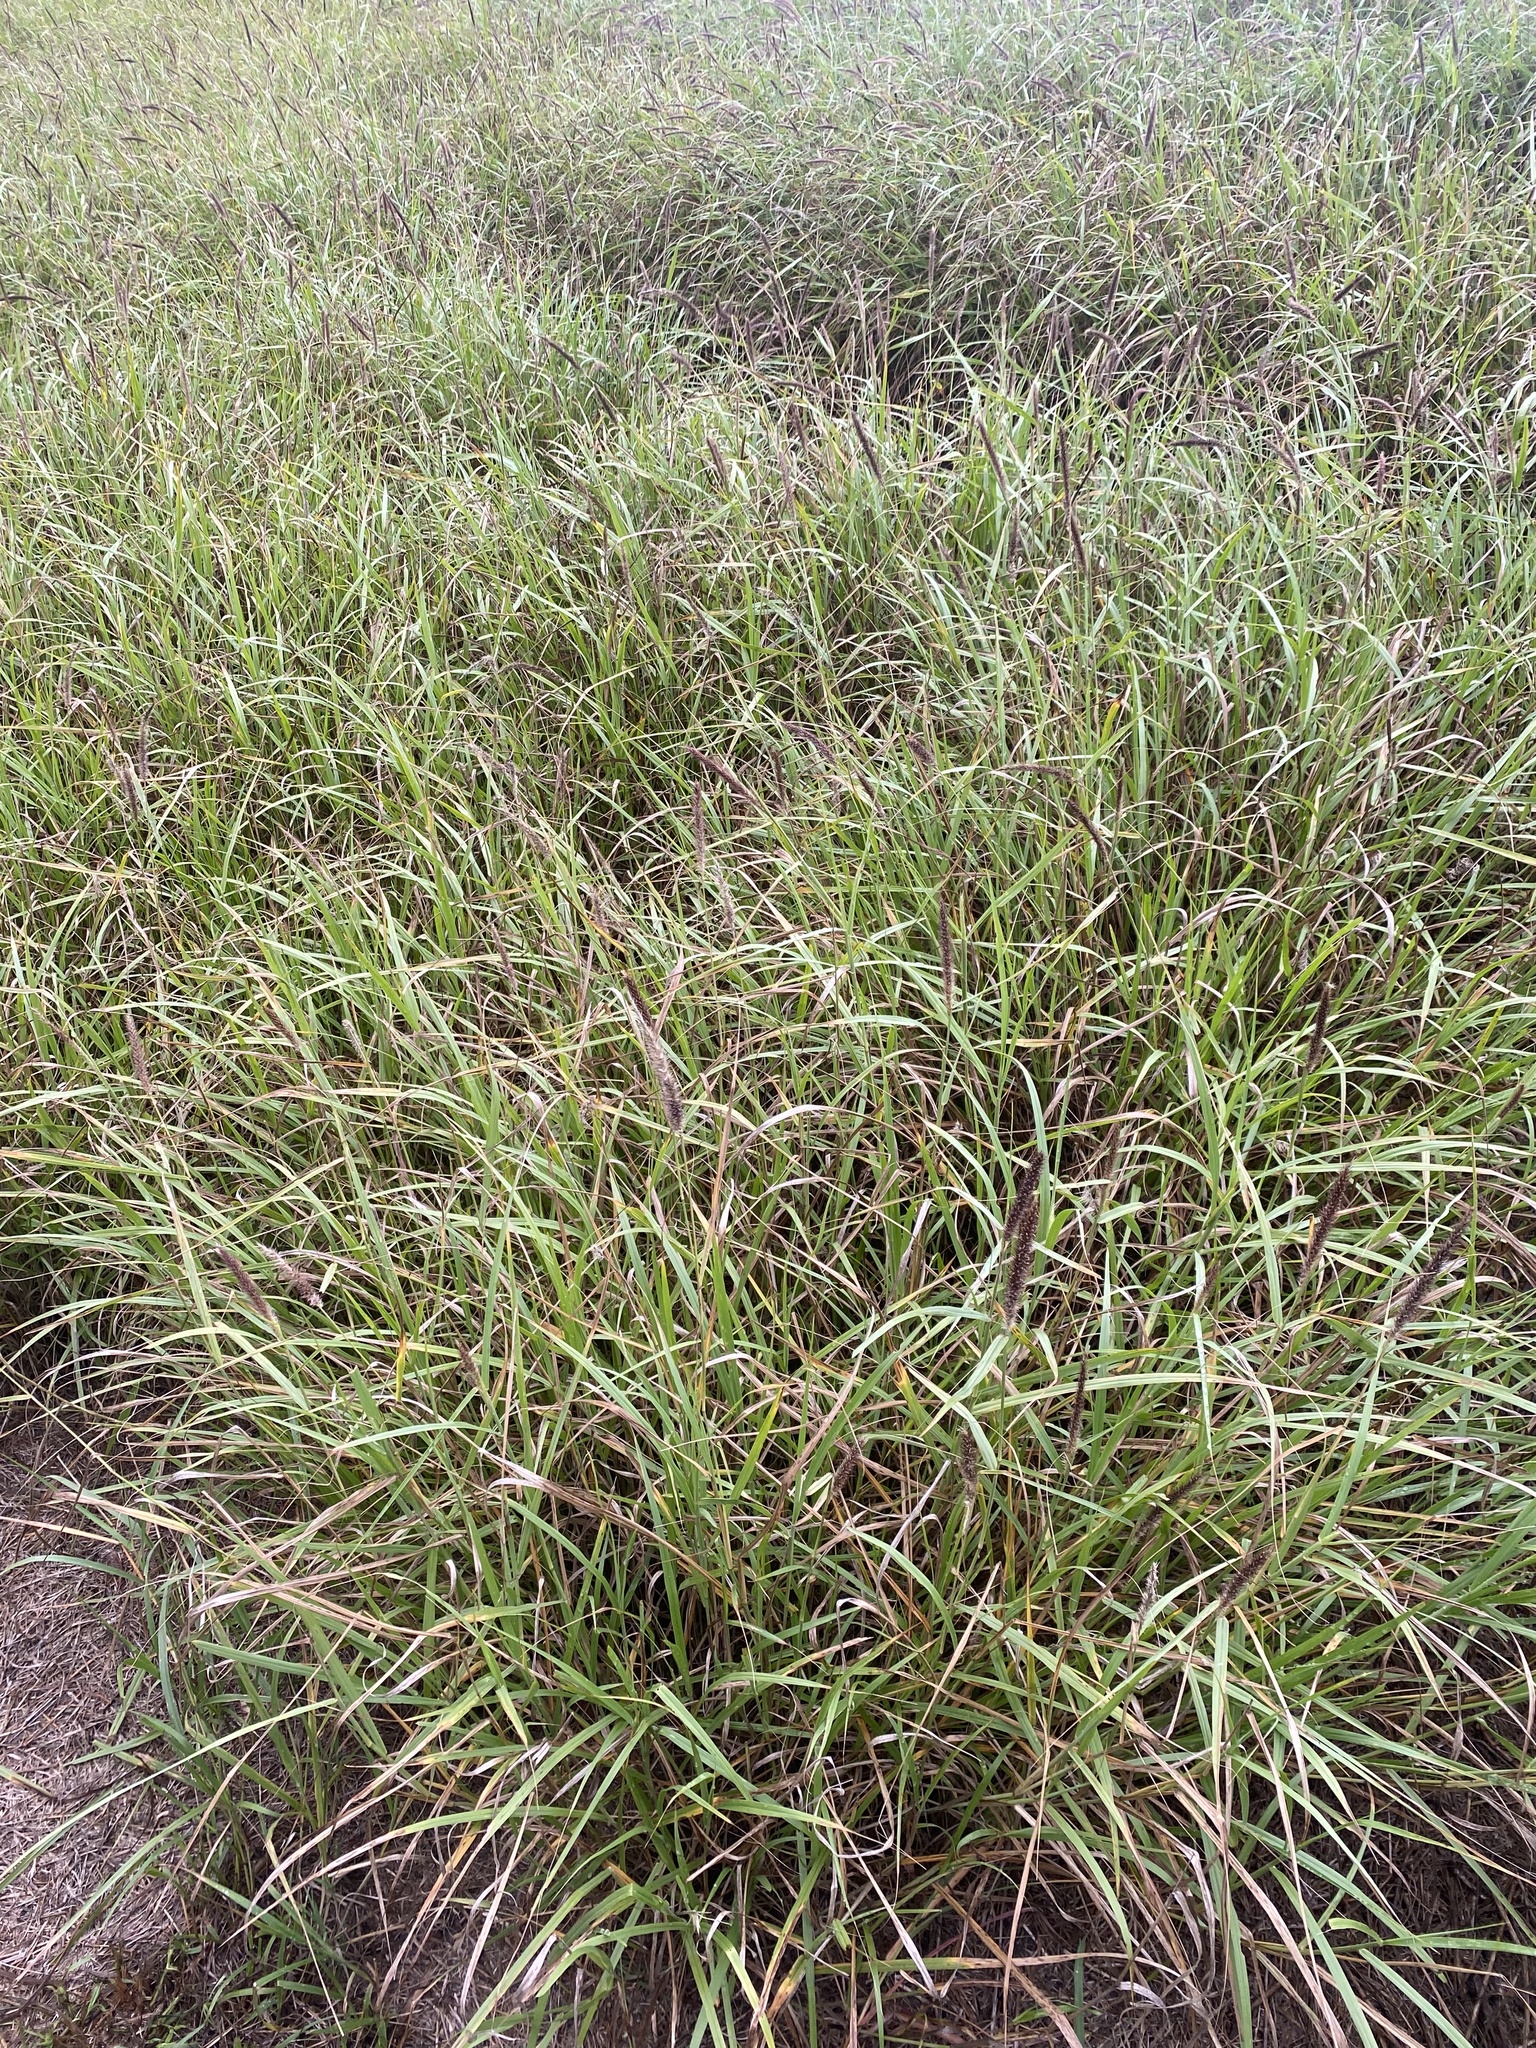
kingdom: Plantae
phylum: Tracheophyta
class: Liliopsida
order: Poales
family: Poaceae
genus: Cenchrus
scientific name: Cenchrus ciliaris
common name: Buffelgrass
